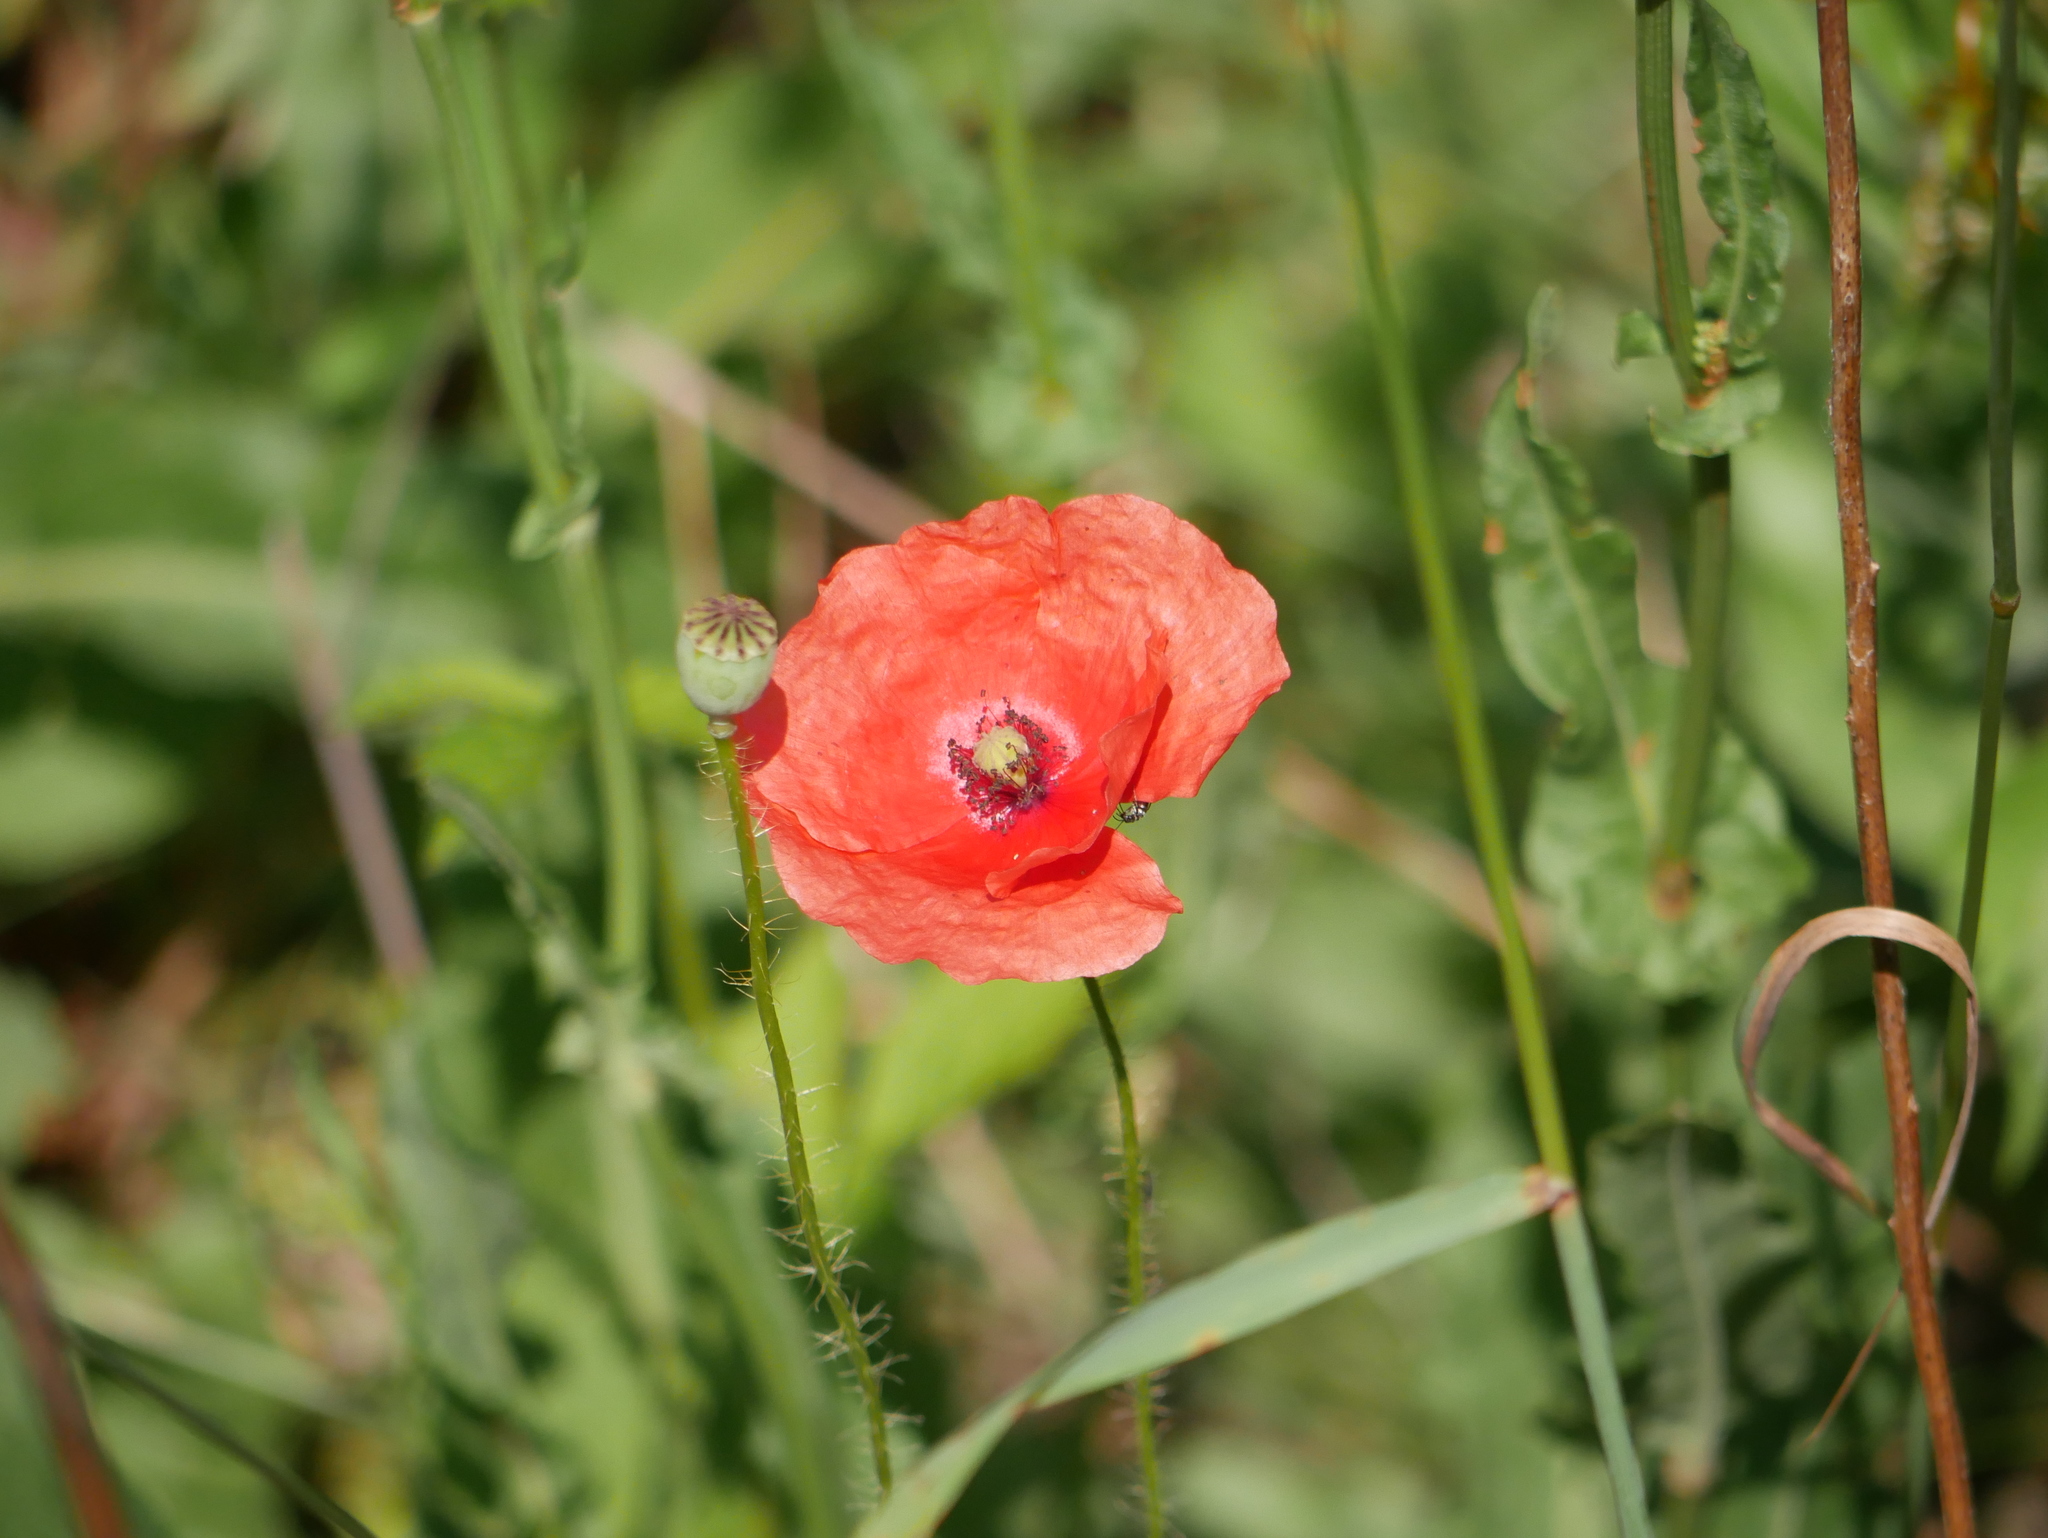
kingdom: Plantae
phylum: Tracheophyta
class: Magnoliopsida
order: Ranunculales
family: Papaveraceae
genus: Papaver
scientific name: Papaver rhoeas
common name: Corn poppy
